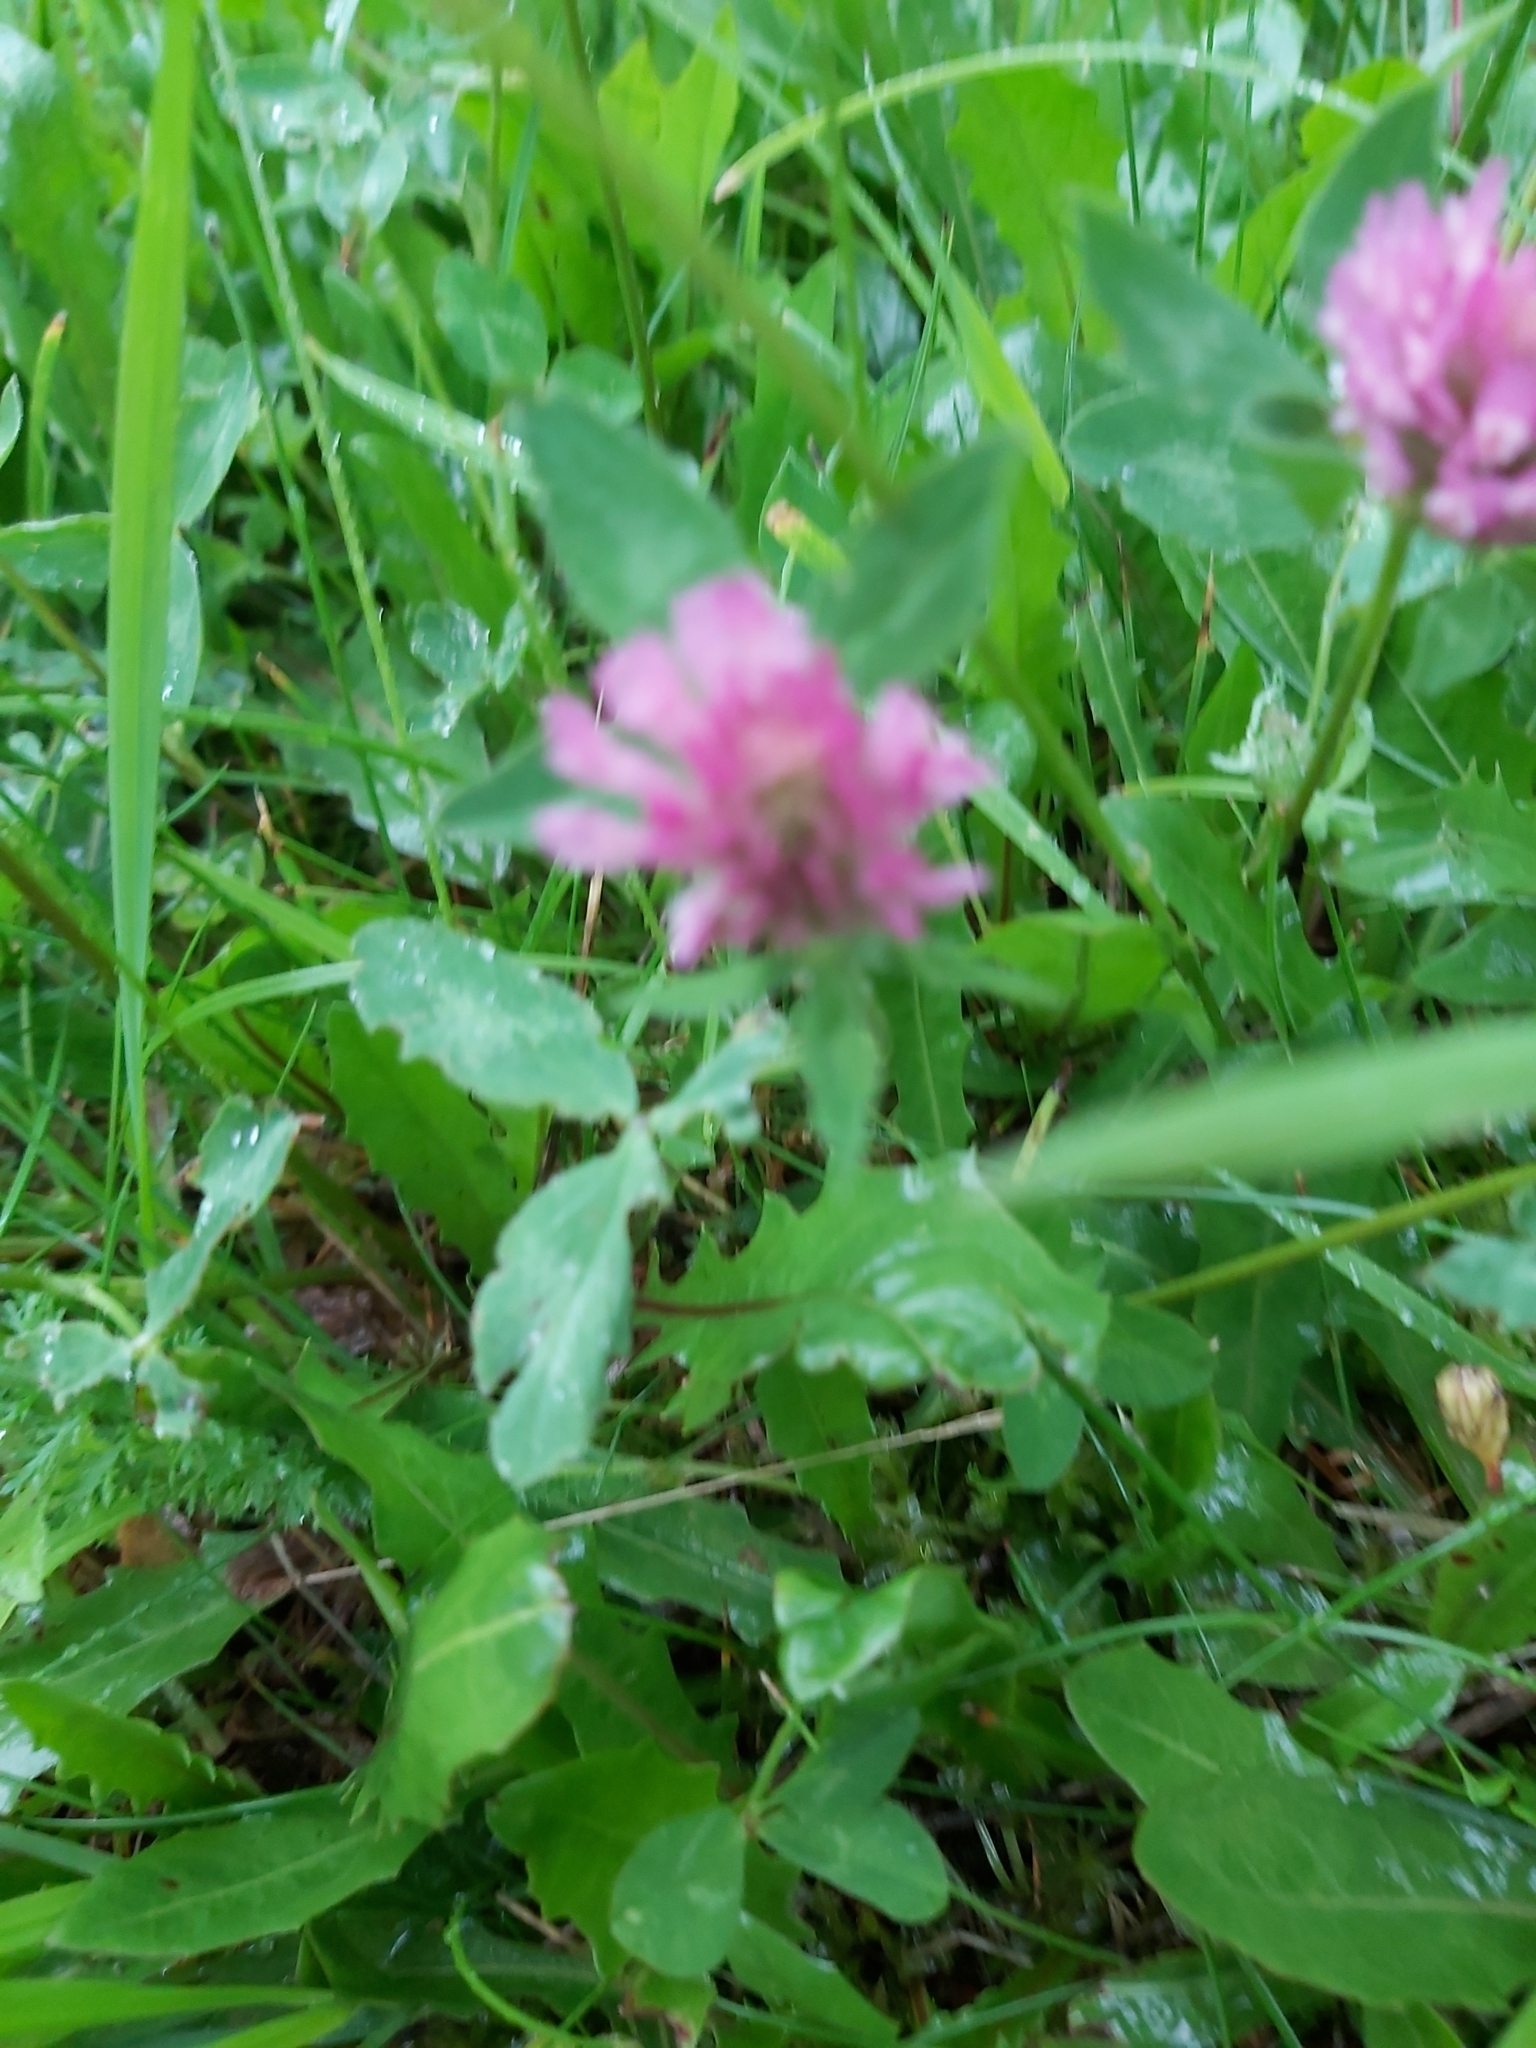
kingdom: Plantae
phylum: Tracheophyta
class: Magnoliopsida
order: Fabales
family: Fabaceae
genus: Trifolium
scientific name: Trifolium pratense
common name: Red clover
